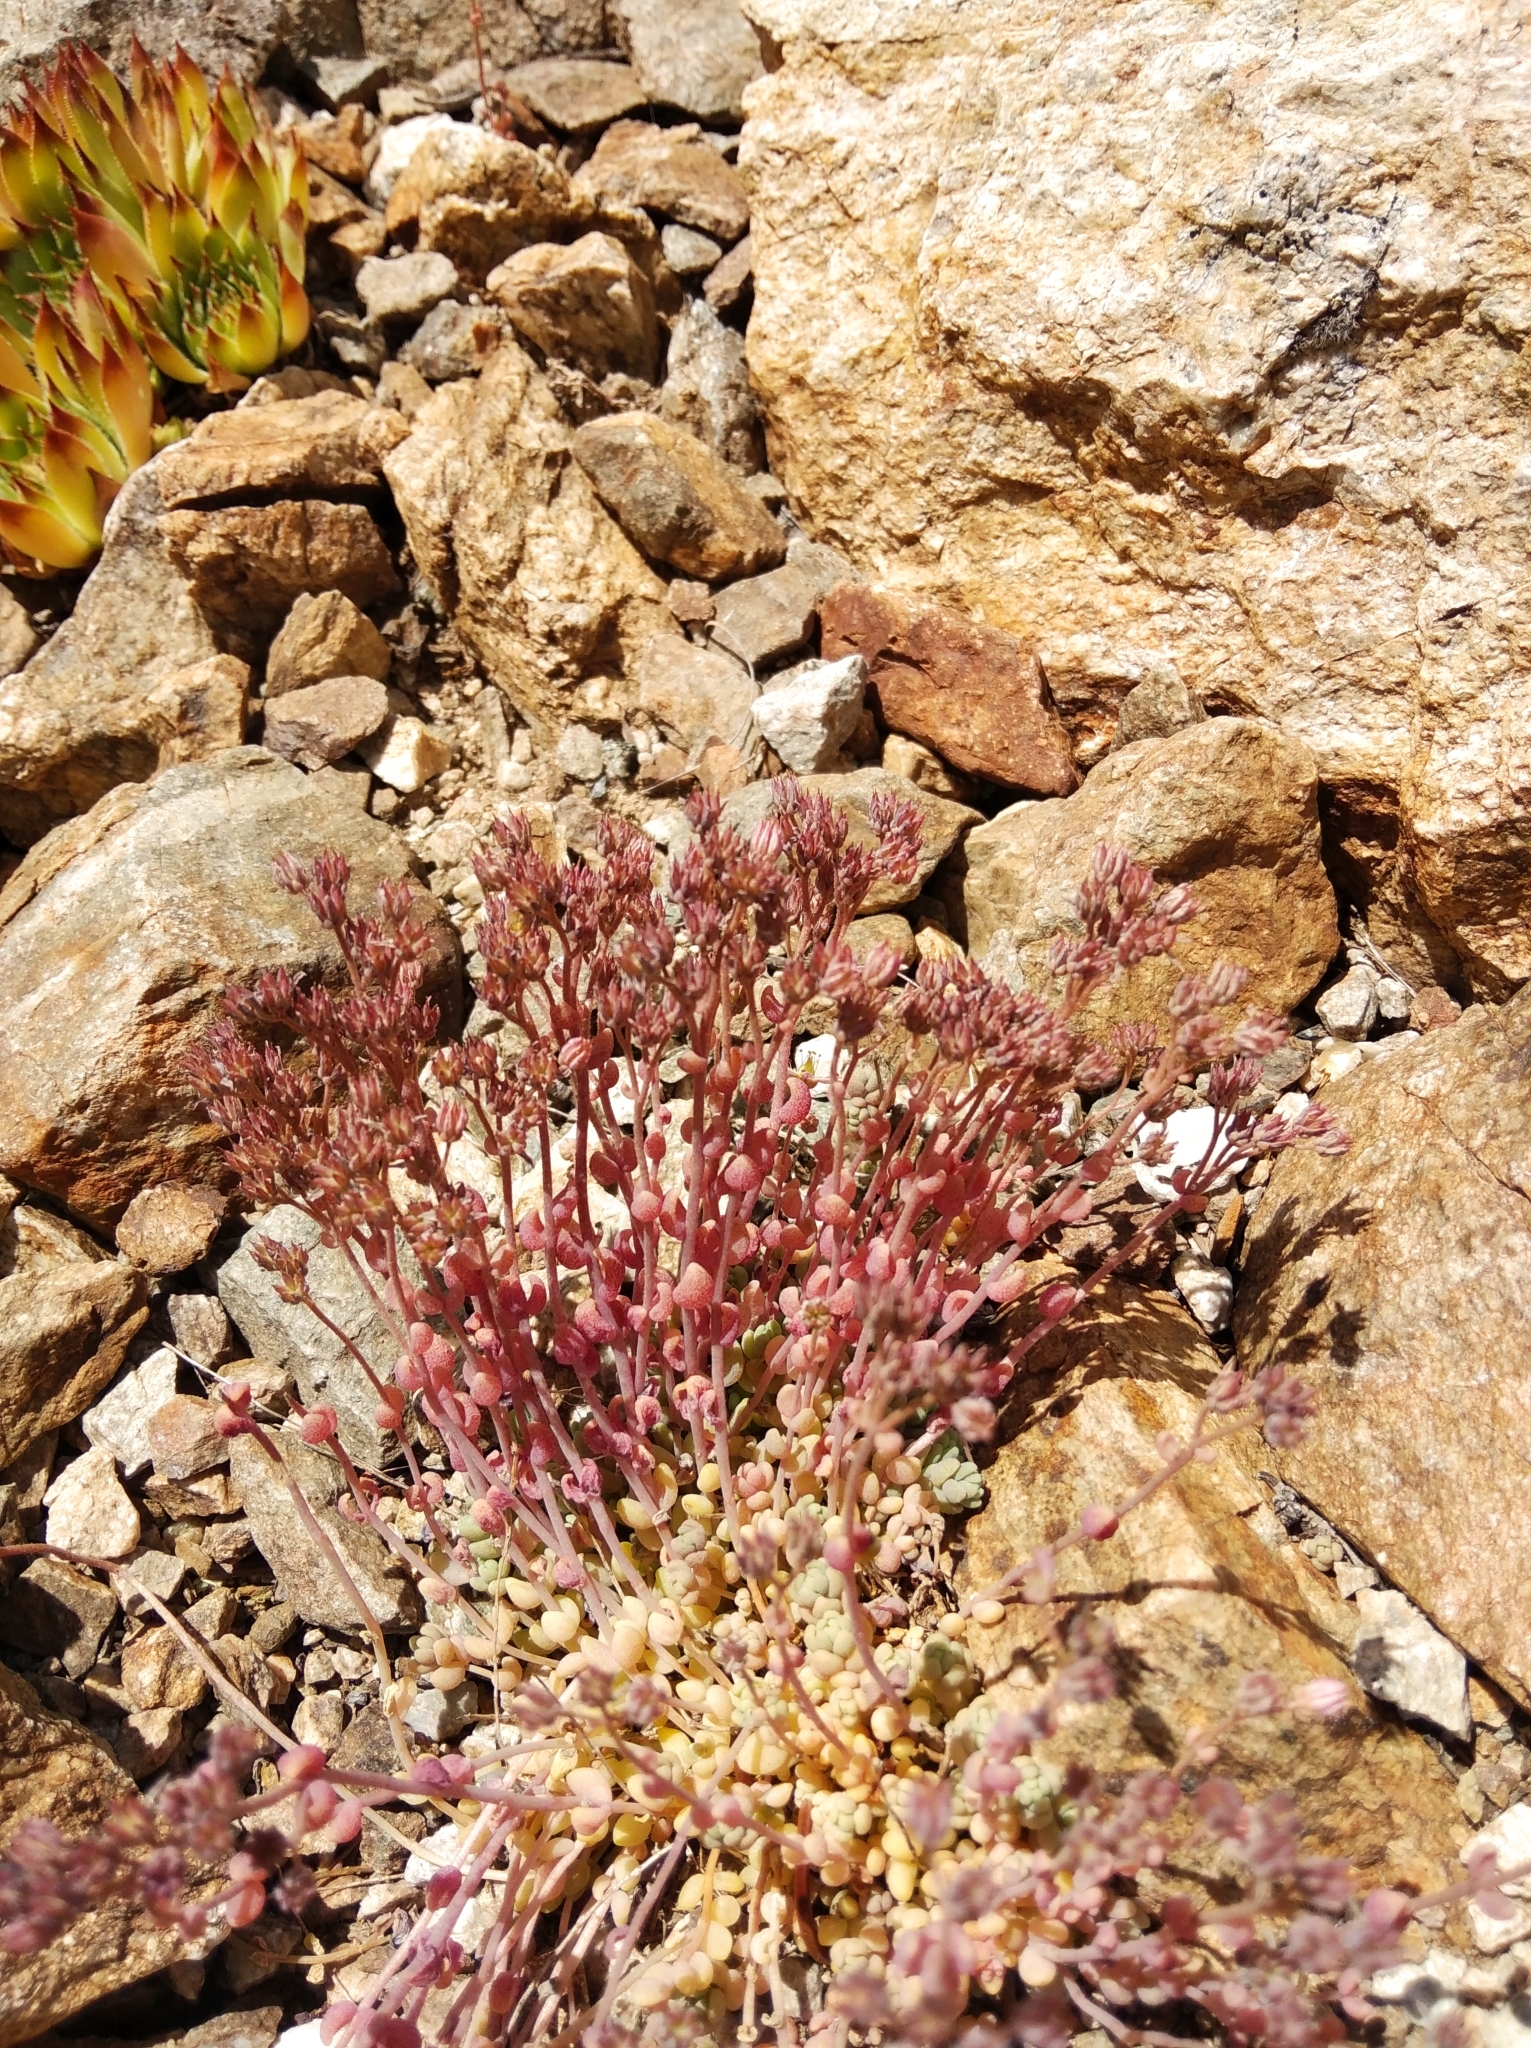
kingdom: Plantae
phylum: Tracheophyta
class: Magnoliopsida
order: Saxifragales
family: Crassulaceae
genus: Sedum
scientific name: Sedum dasyphyllum
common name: Thick-leaf stonecrop
